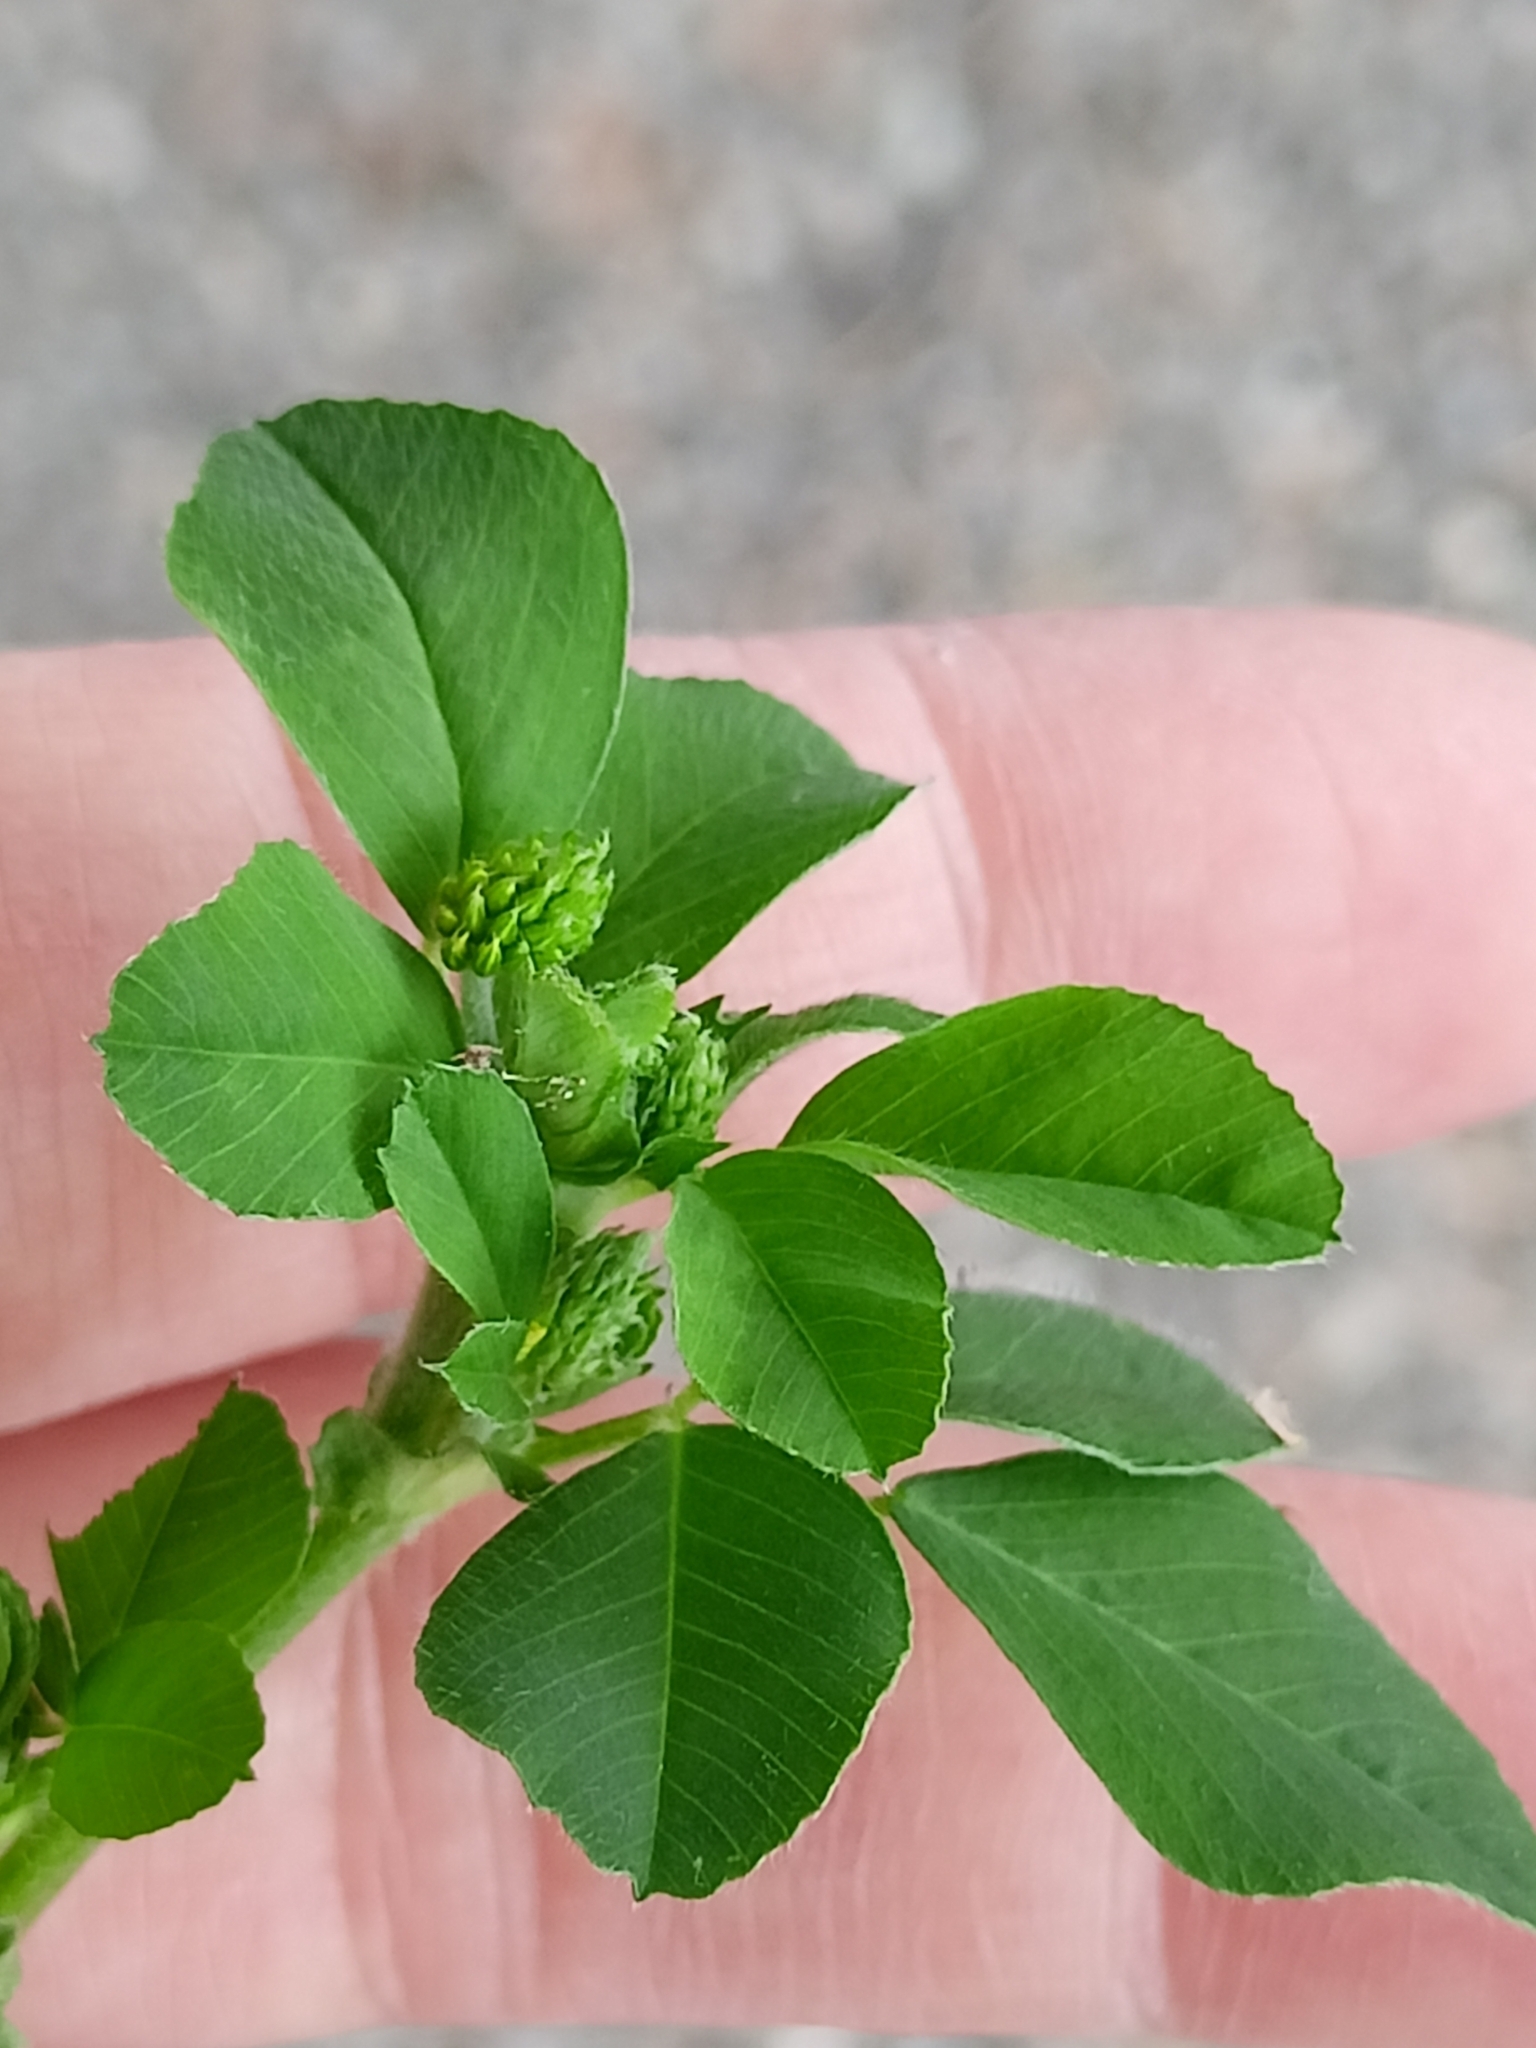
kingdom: Plantae
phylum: Tracheophyta
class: Magnoliopsida
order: Fabales
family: Fabaceae
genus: Medicago
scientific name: Medicago lupulina
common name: Black medick
